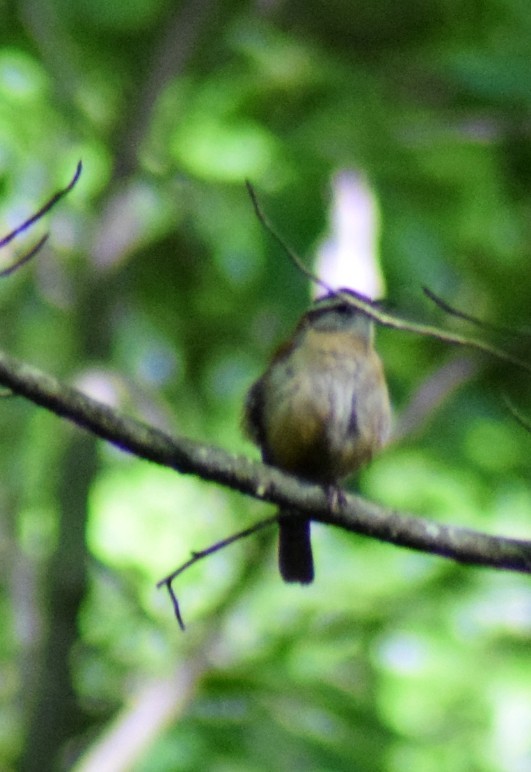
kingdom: Animalia
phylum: Chordata
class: Aves
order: Passeriformes
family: Troglodytidae
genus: Thryothorus
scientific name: Thryothorus ludovicianus
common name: Carolina wren
